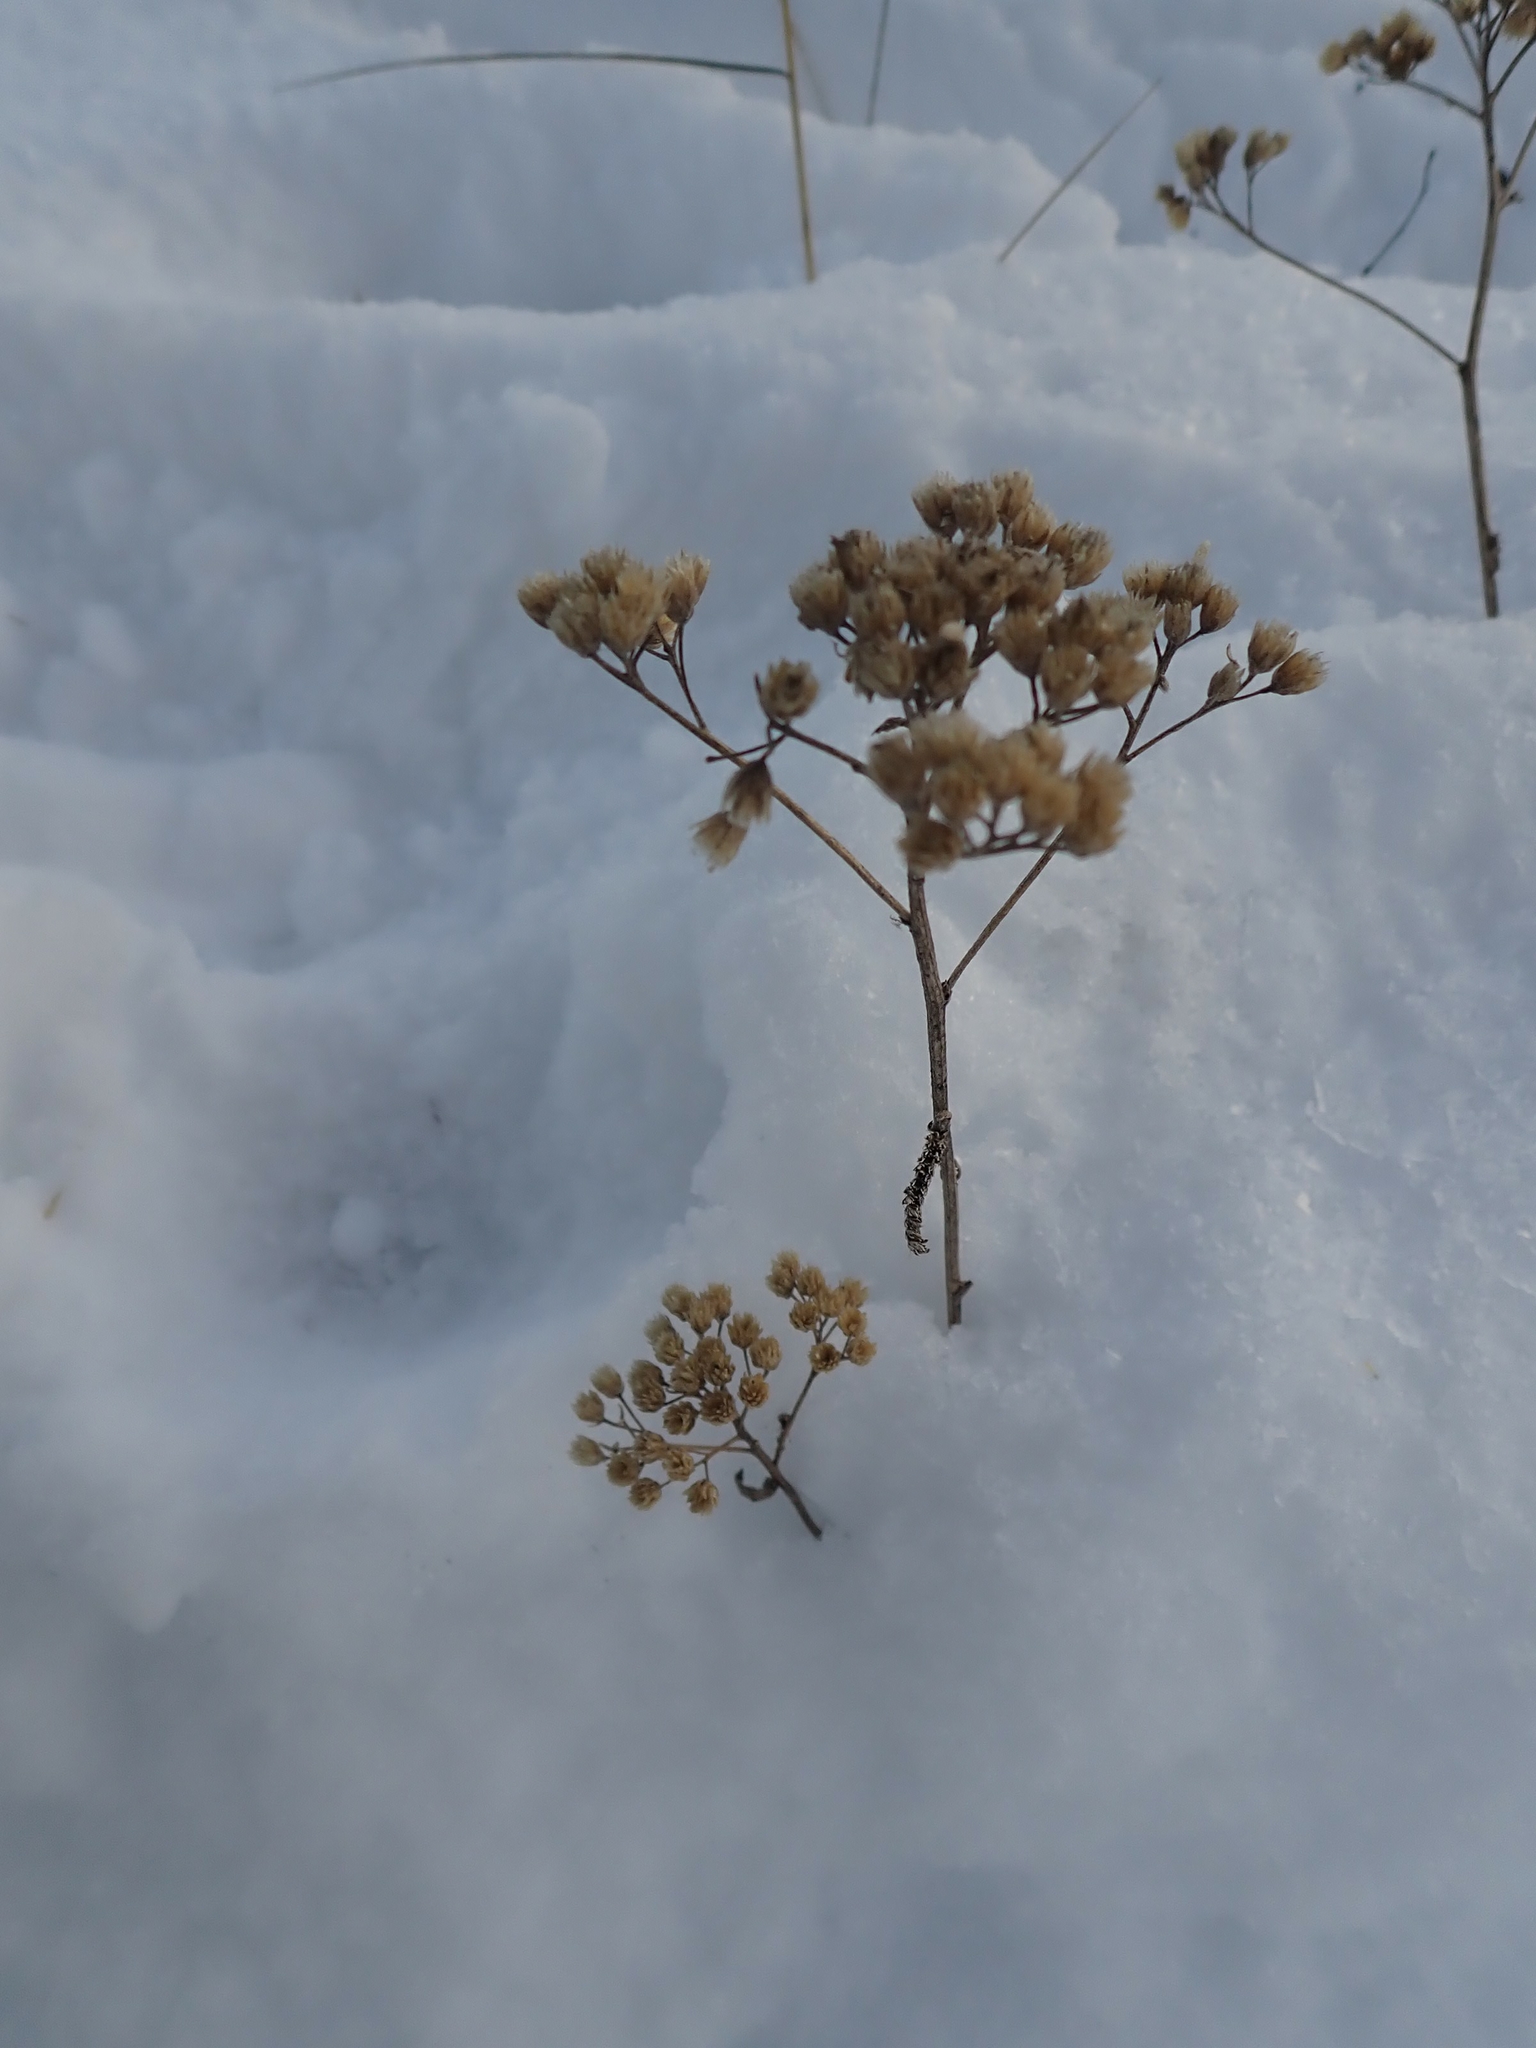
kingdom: Plantae
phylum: Tracheophyta
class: Magnoliopsida
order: Asterales
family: Asteraceae
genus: Achillea
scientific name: Achillea millefolium
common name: Yarrow
